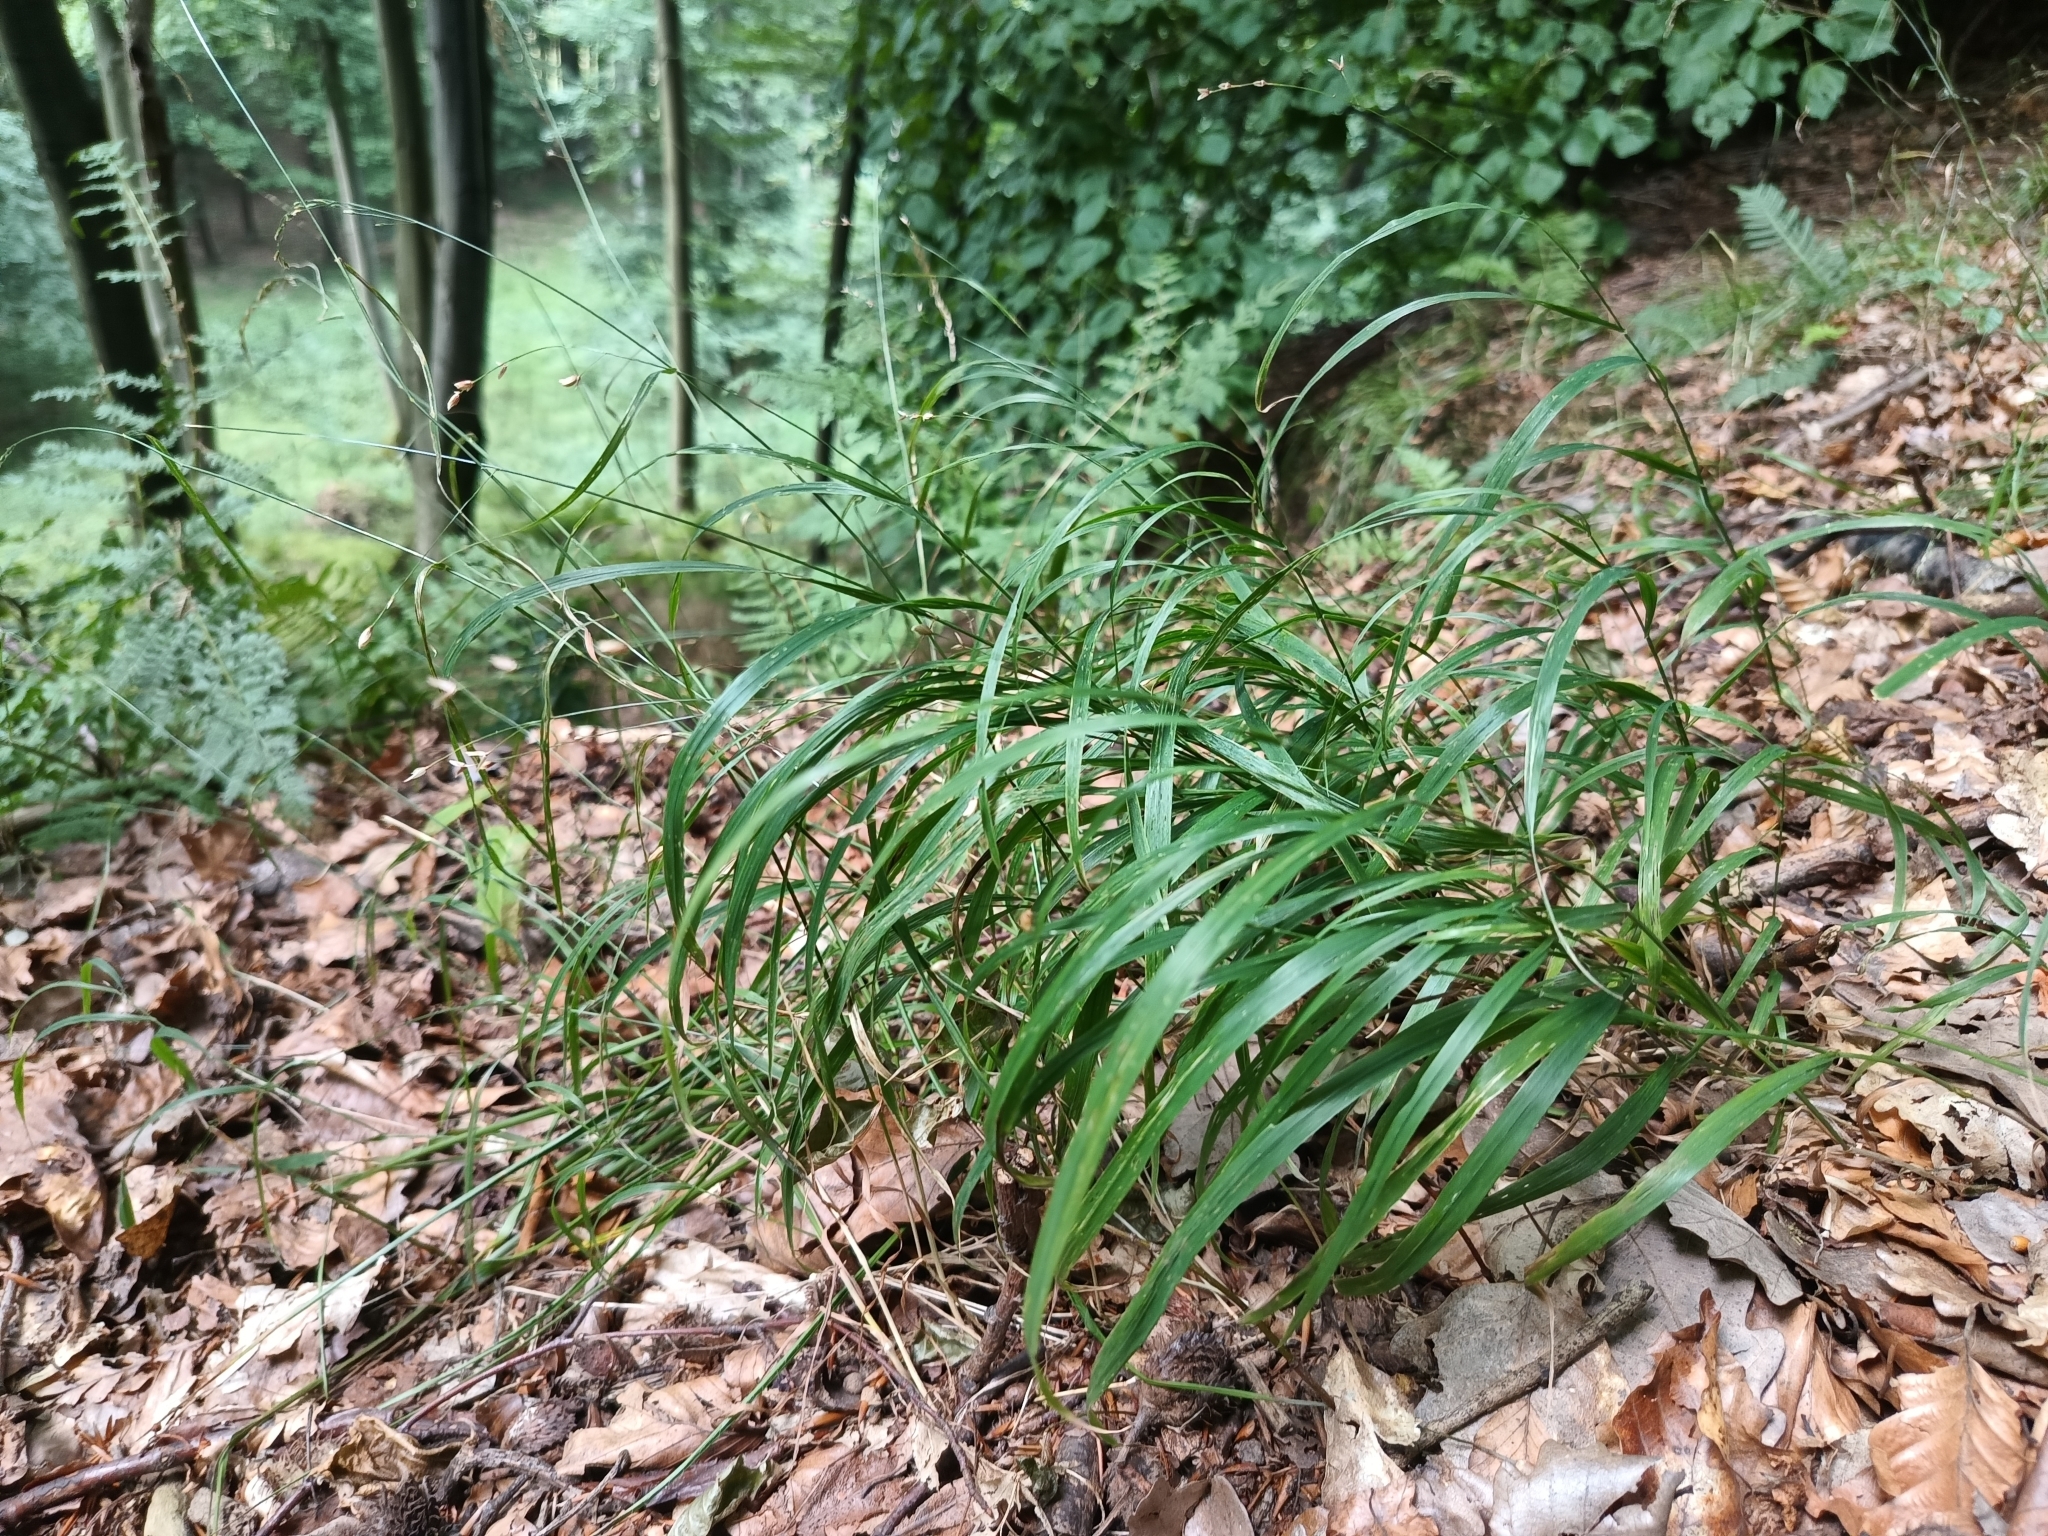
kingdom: Plantae
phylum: Tracheophyta
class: Liliopsida
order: Poales
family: Poaceae
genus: Melica
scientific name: Melica uniflora
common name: Wood melick
